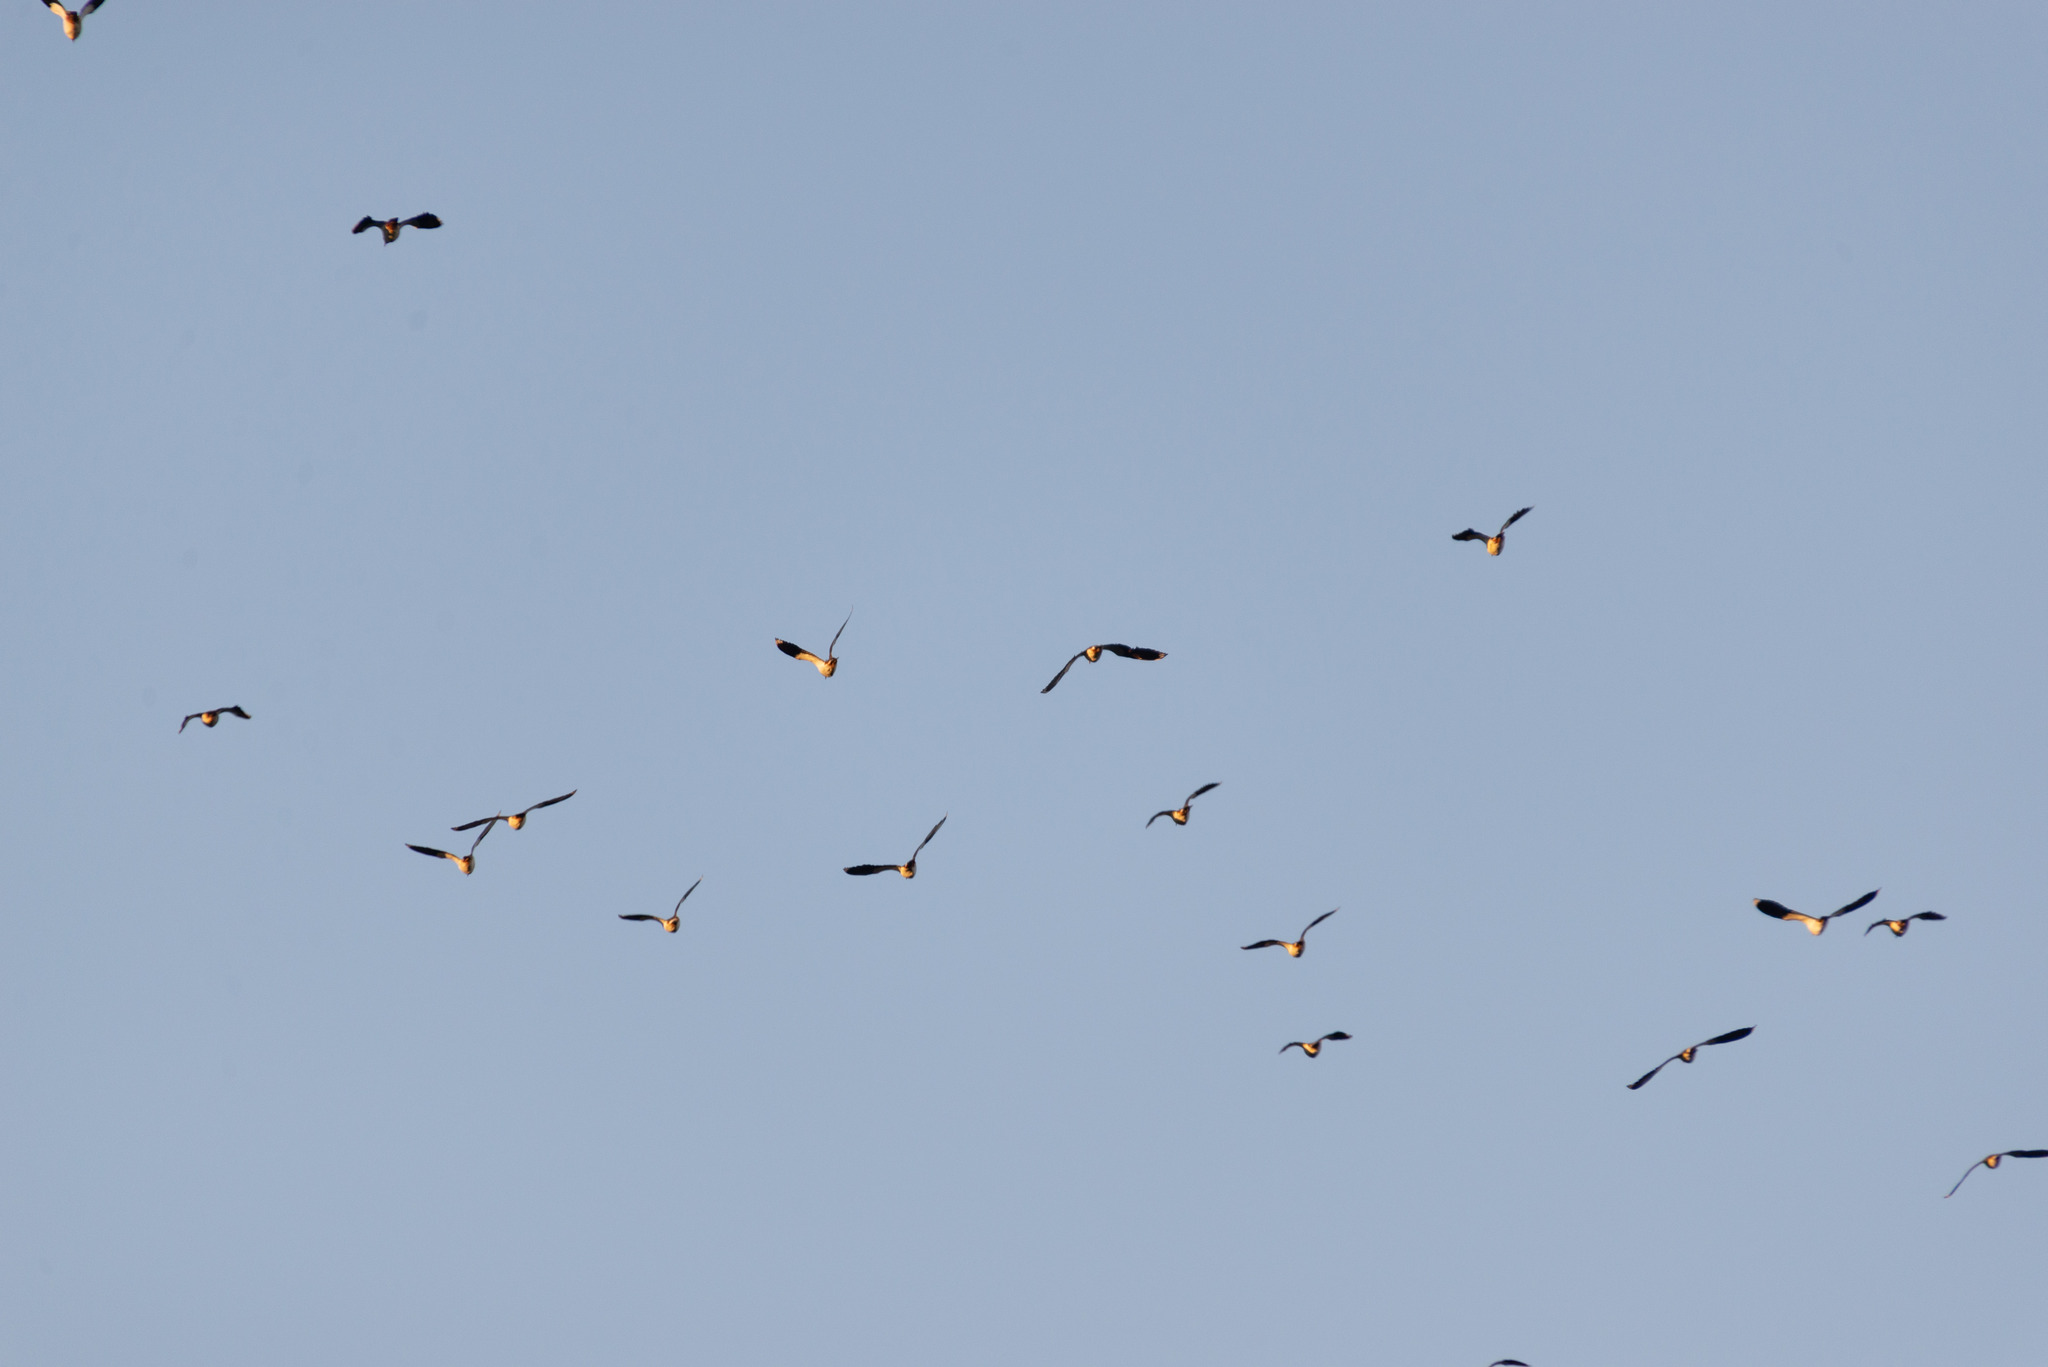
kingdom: Animalia
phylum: Chordata
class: Aves
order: Charadriiformes
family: Charadriidae
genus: Vanellus
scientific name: Vanellus vanellus
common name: Northern lapwing
